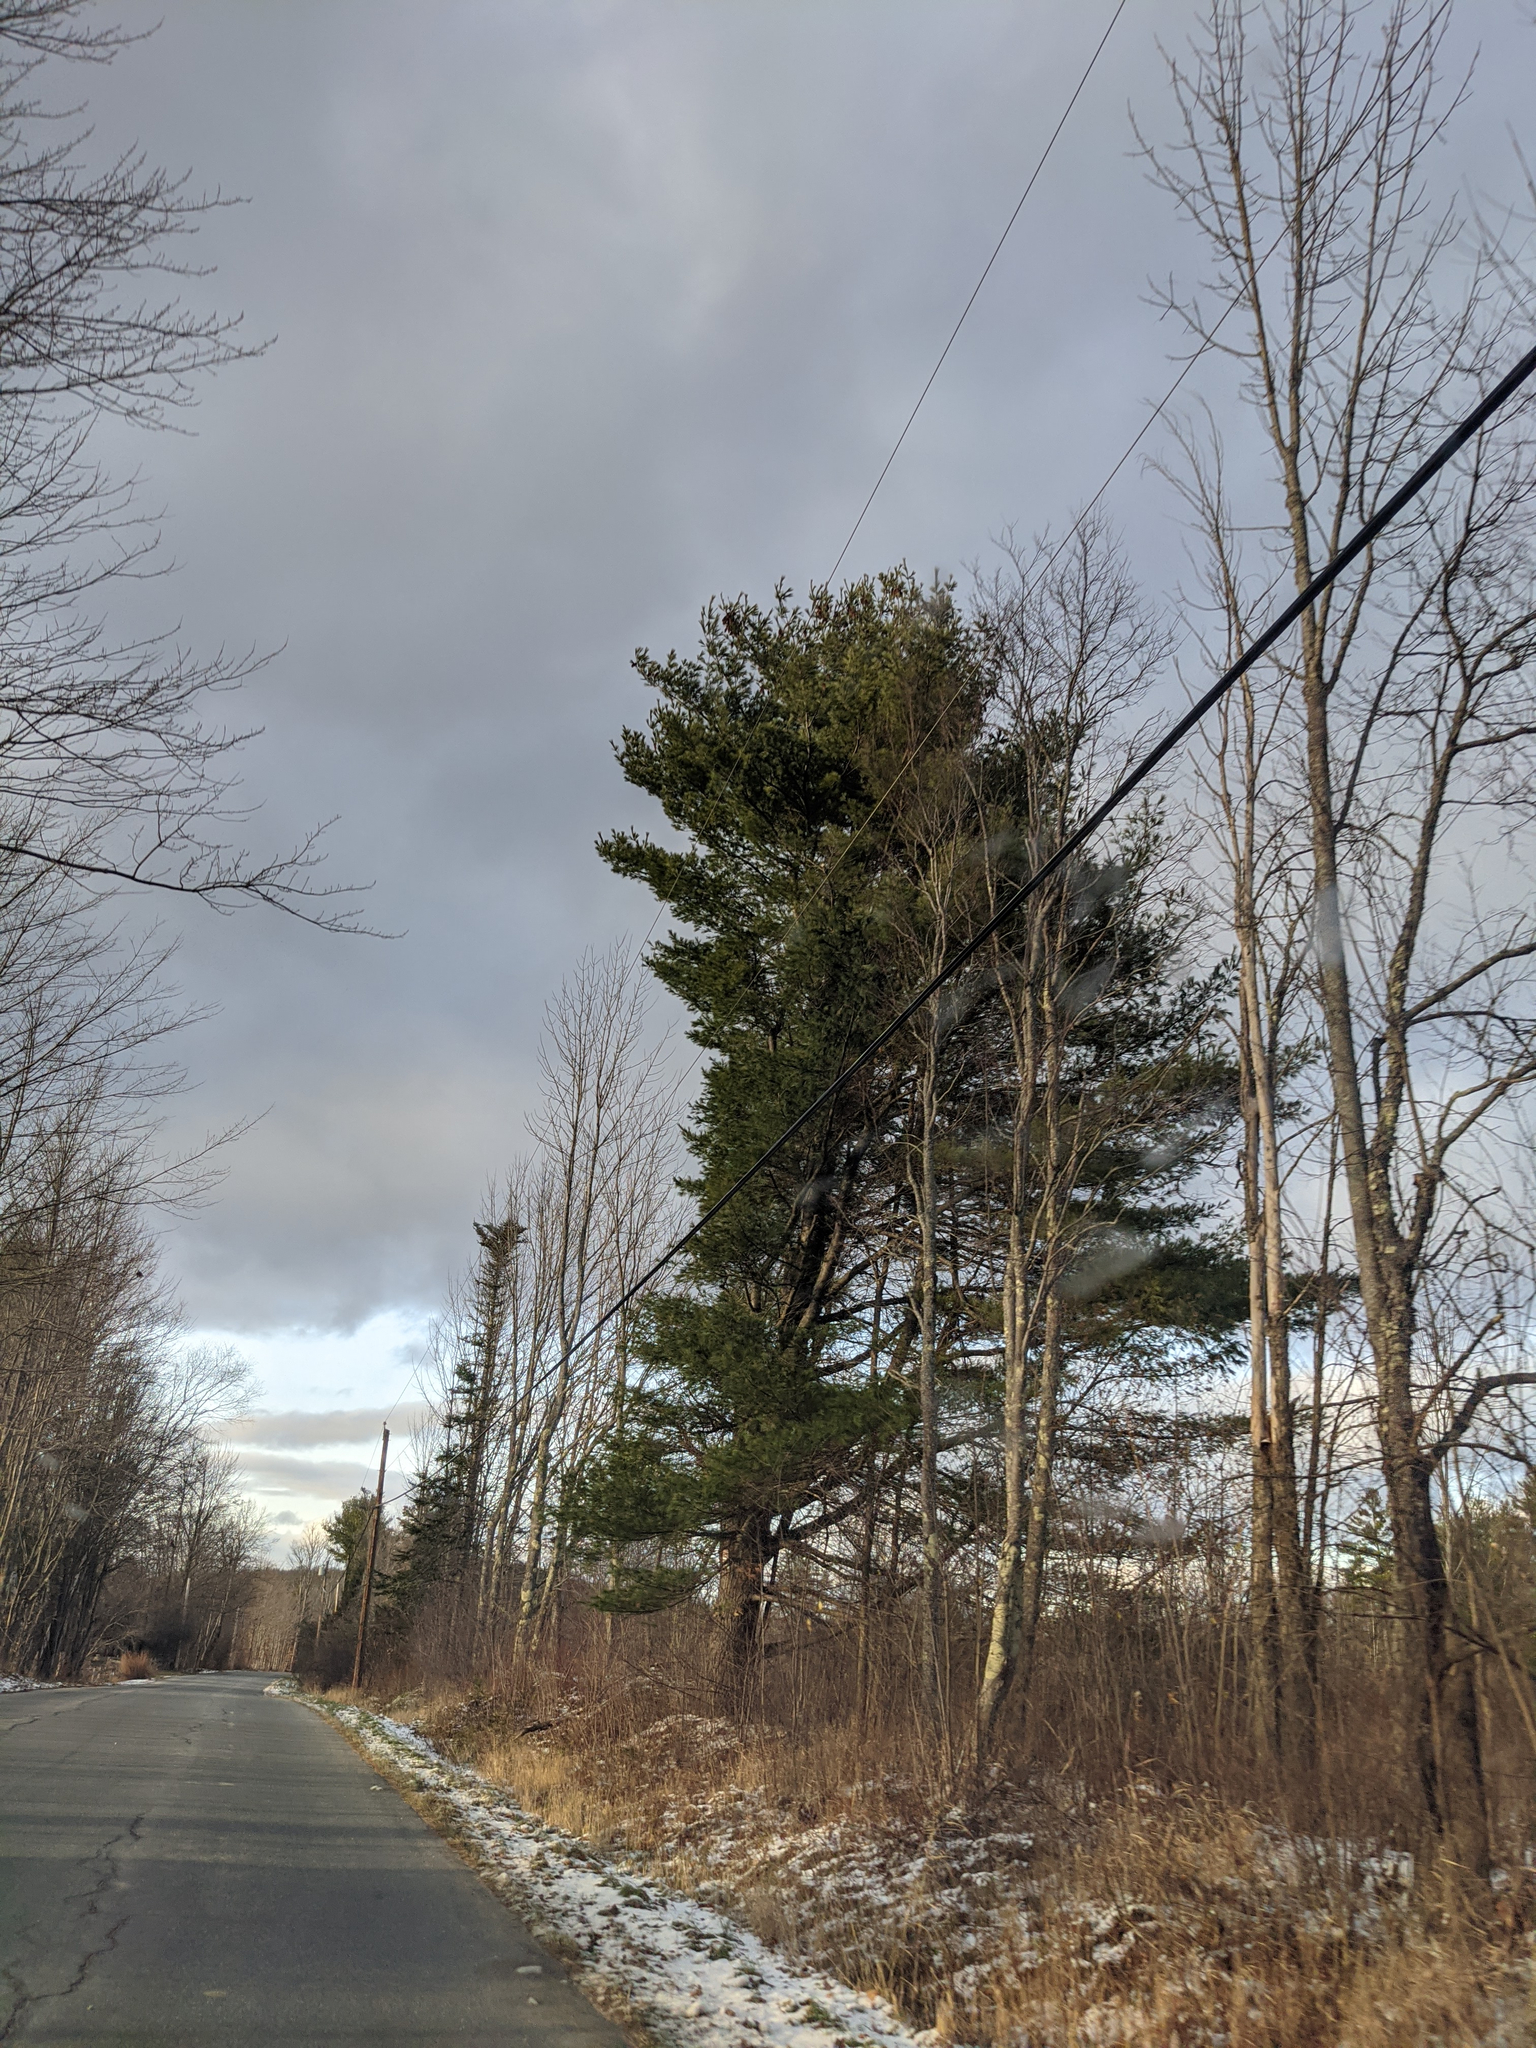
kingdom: Plantae
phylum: Tracheophyta
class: Pinopsida
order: Pinales
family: Pinaceae
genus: Pinus
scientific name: Pinus strobus
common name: Weymouth pine
